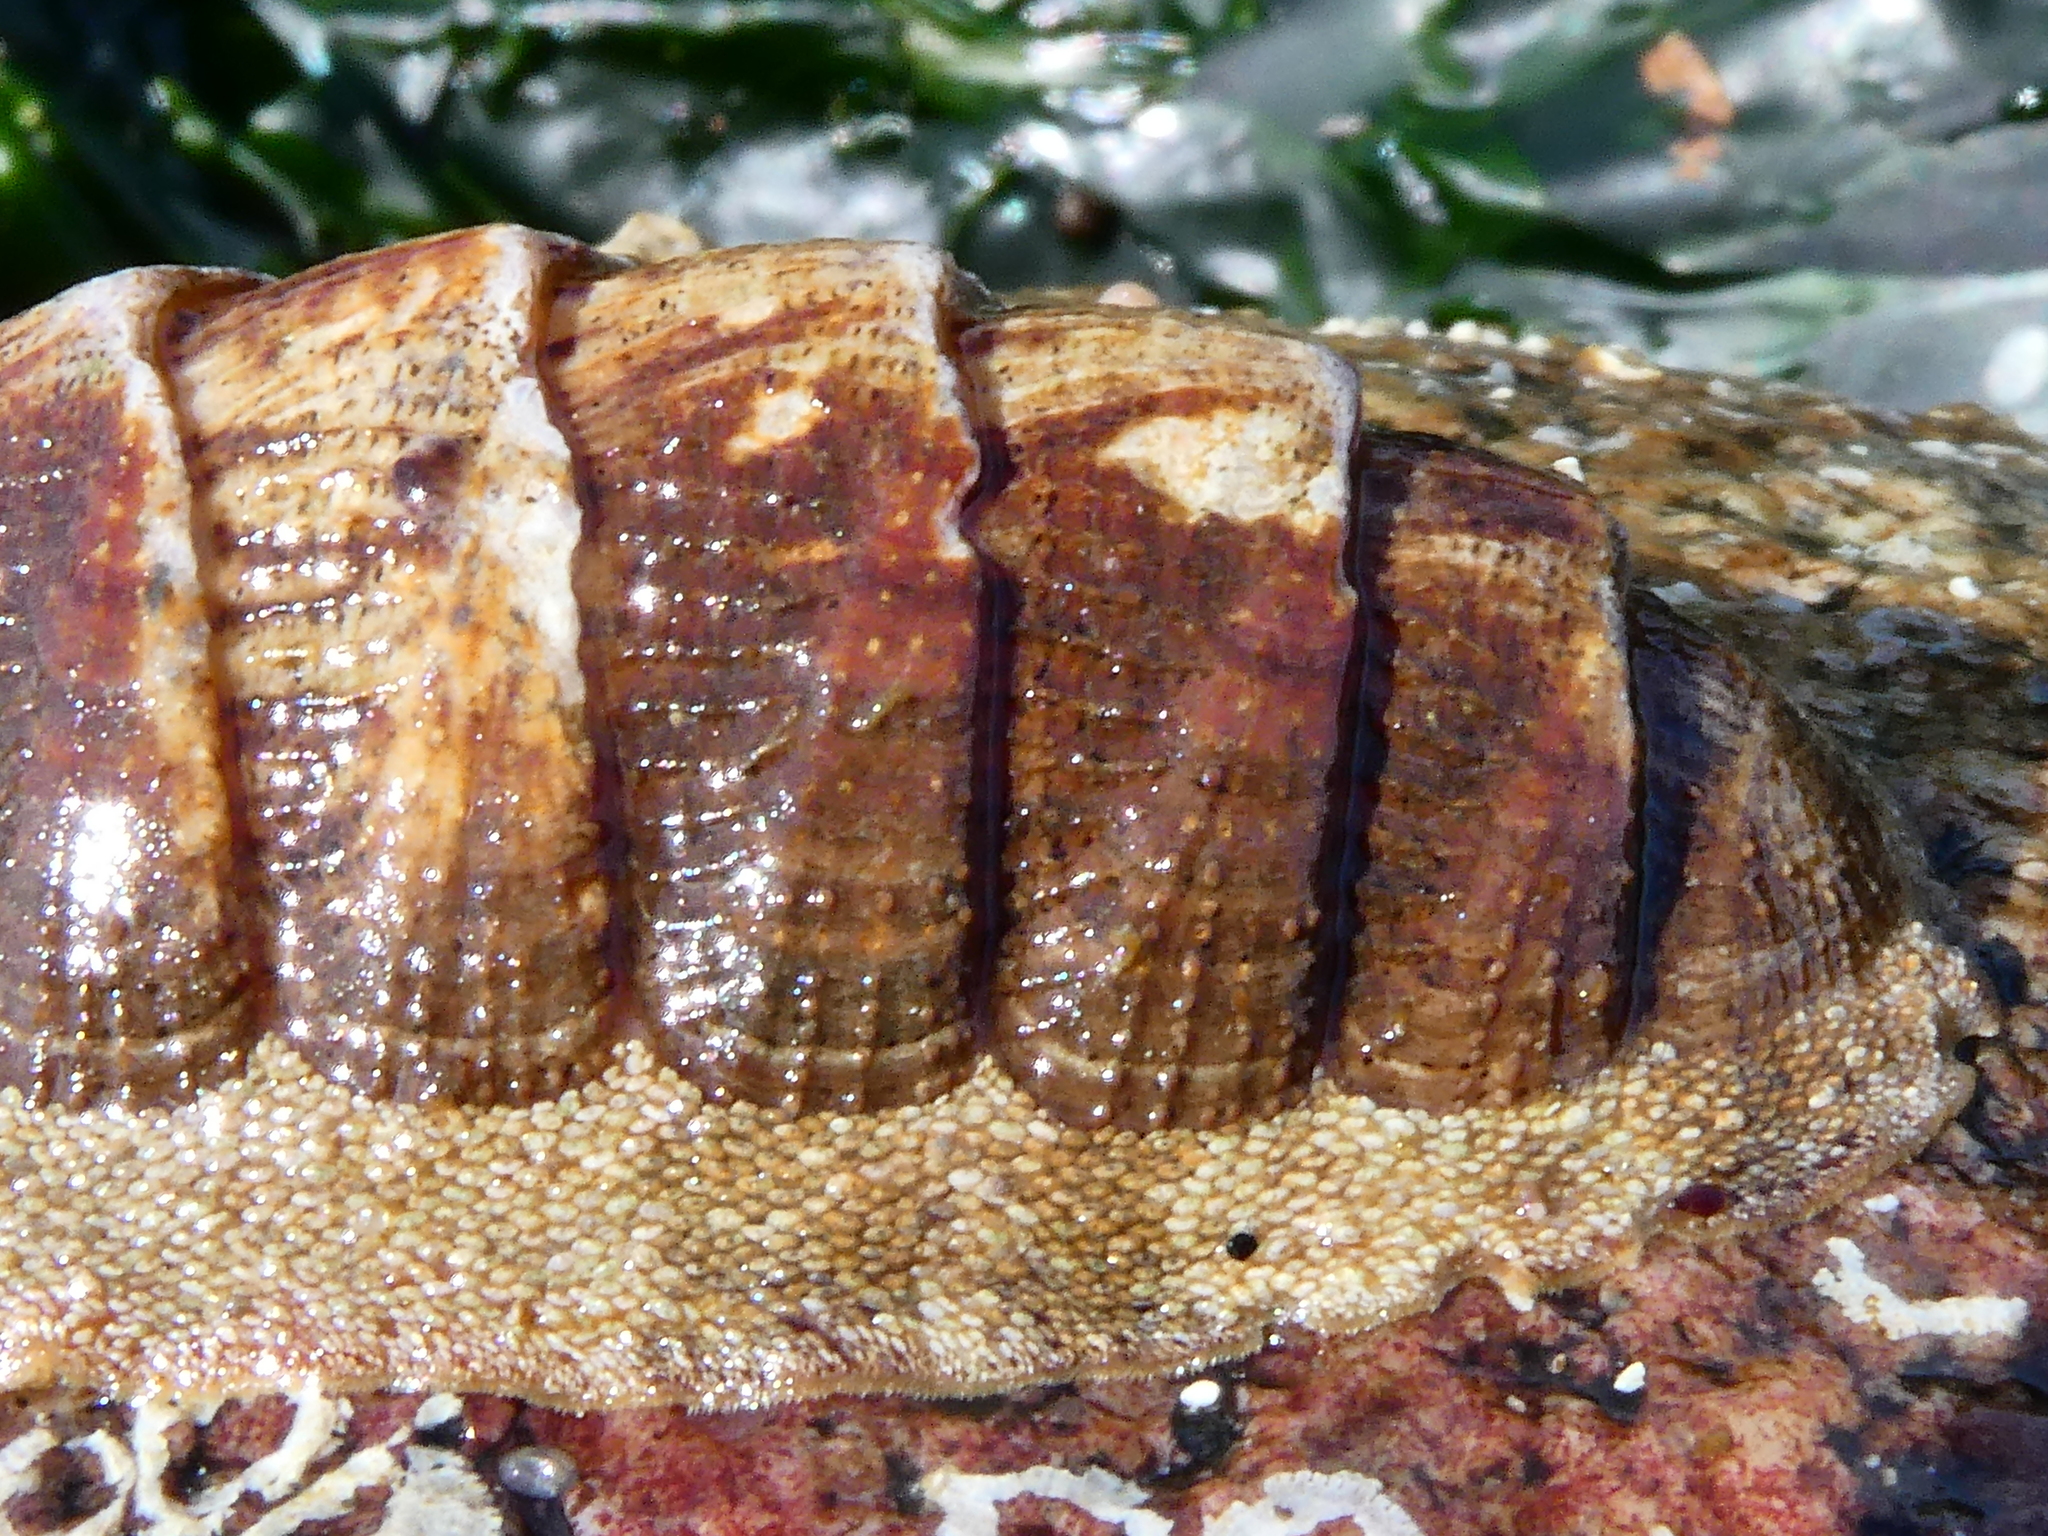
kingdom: Animalia
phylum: Mollusca
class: Polyplacophora
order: Chitonida
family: Ischnochitonidae
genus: Lepidozona
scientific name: Lepidozona mertensii
